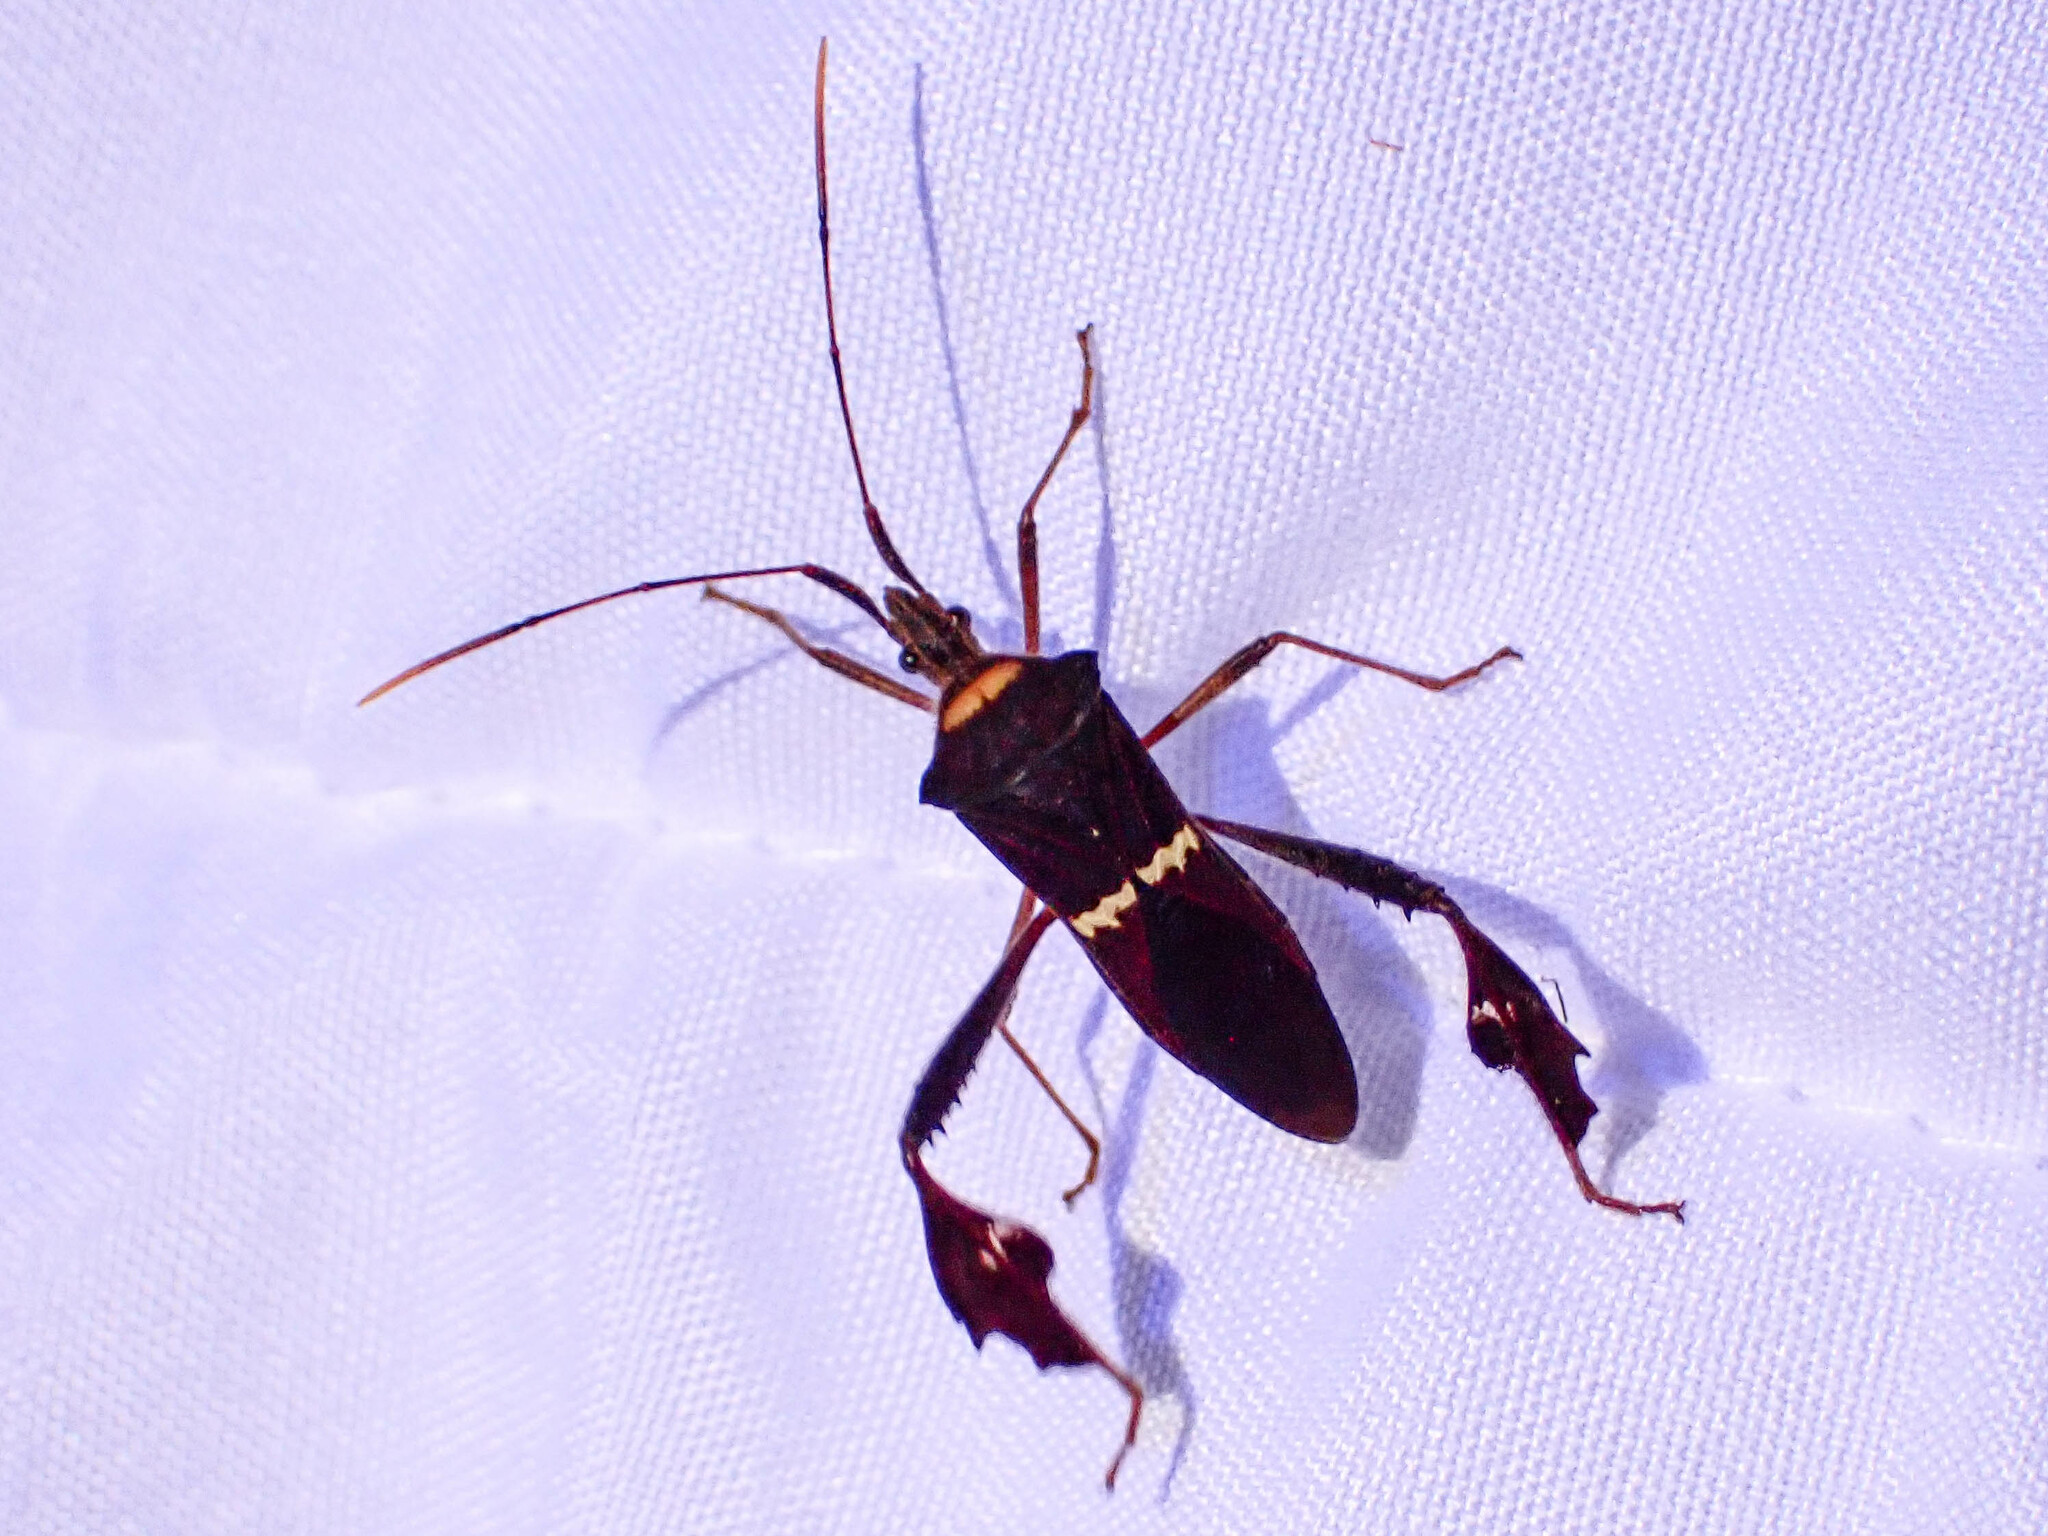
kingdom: Animalia
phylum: Arthropoda
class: Insecta
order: Hemiptera
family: Coreidae
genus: Leptoglossus
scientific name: Leptoglossus macrophyllus
